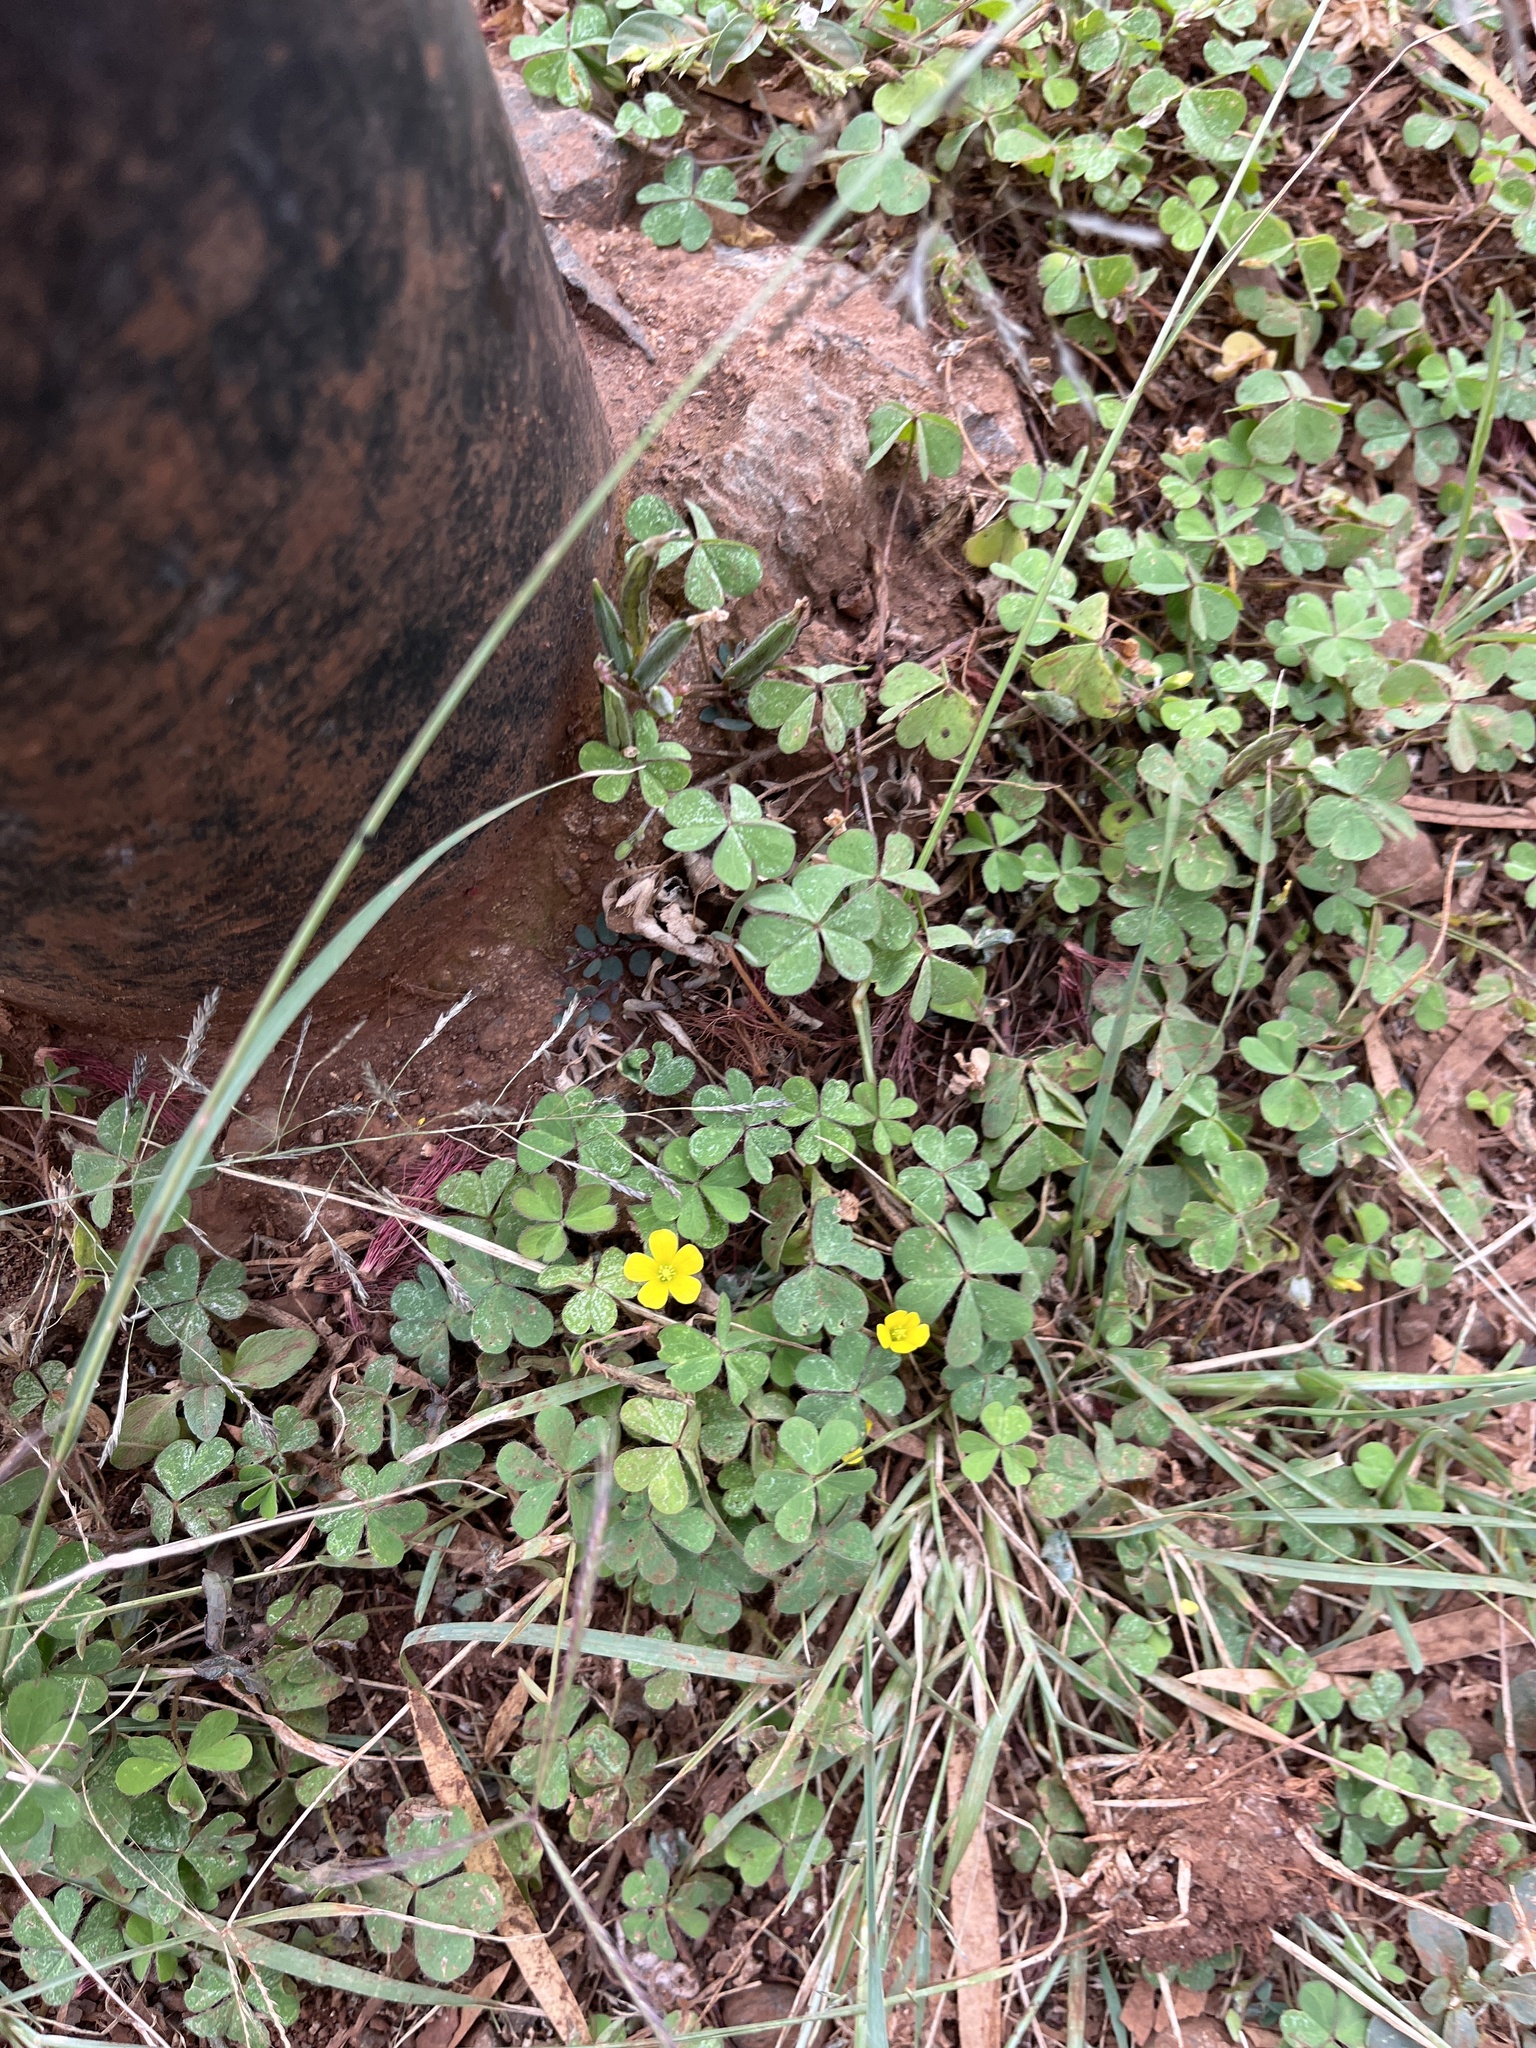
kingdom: Plantae
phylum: Tracheophyta
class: Magnoliopsida
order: Oxalidales
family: Oxalidaceae
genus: Oxalis
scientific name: Oxalis corniculata
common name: Procumbent yellow-sorrel
